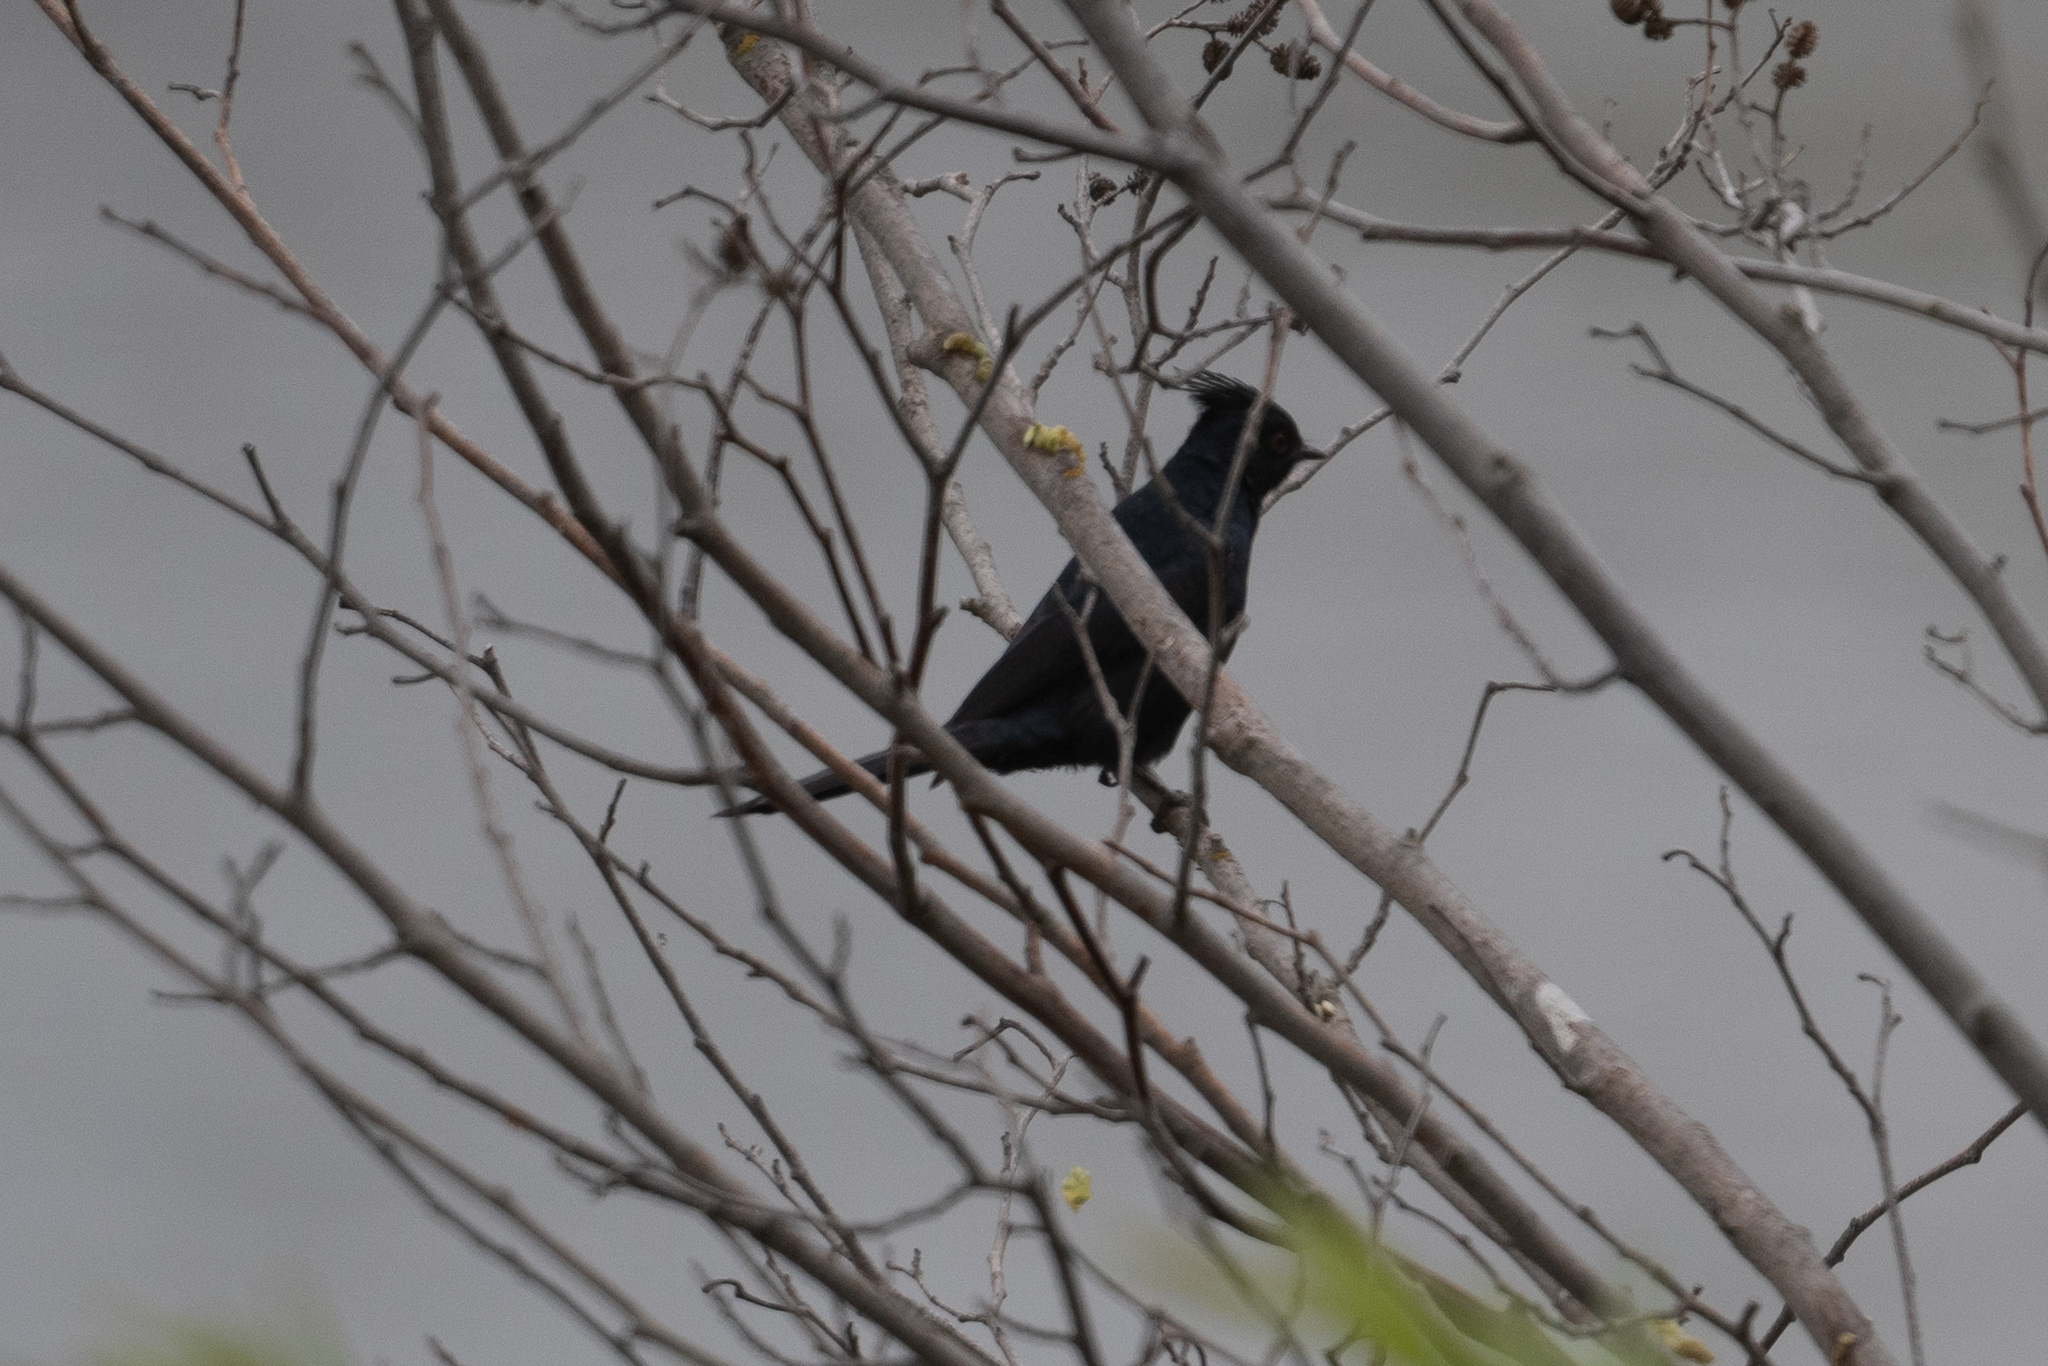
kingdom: Animalia
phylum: Chordata
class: Aves
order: Passeriformes
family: Ptilogonatidae
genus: Phainopepla
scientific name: Phainopepla nitens
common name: Phainopepla
